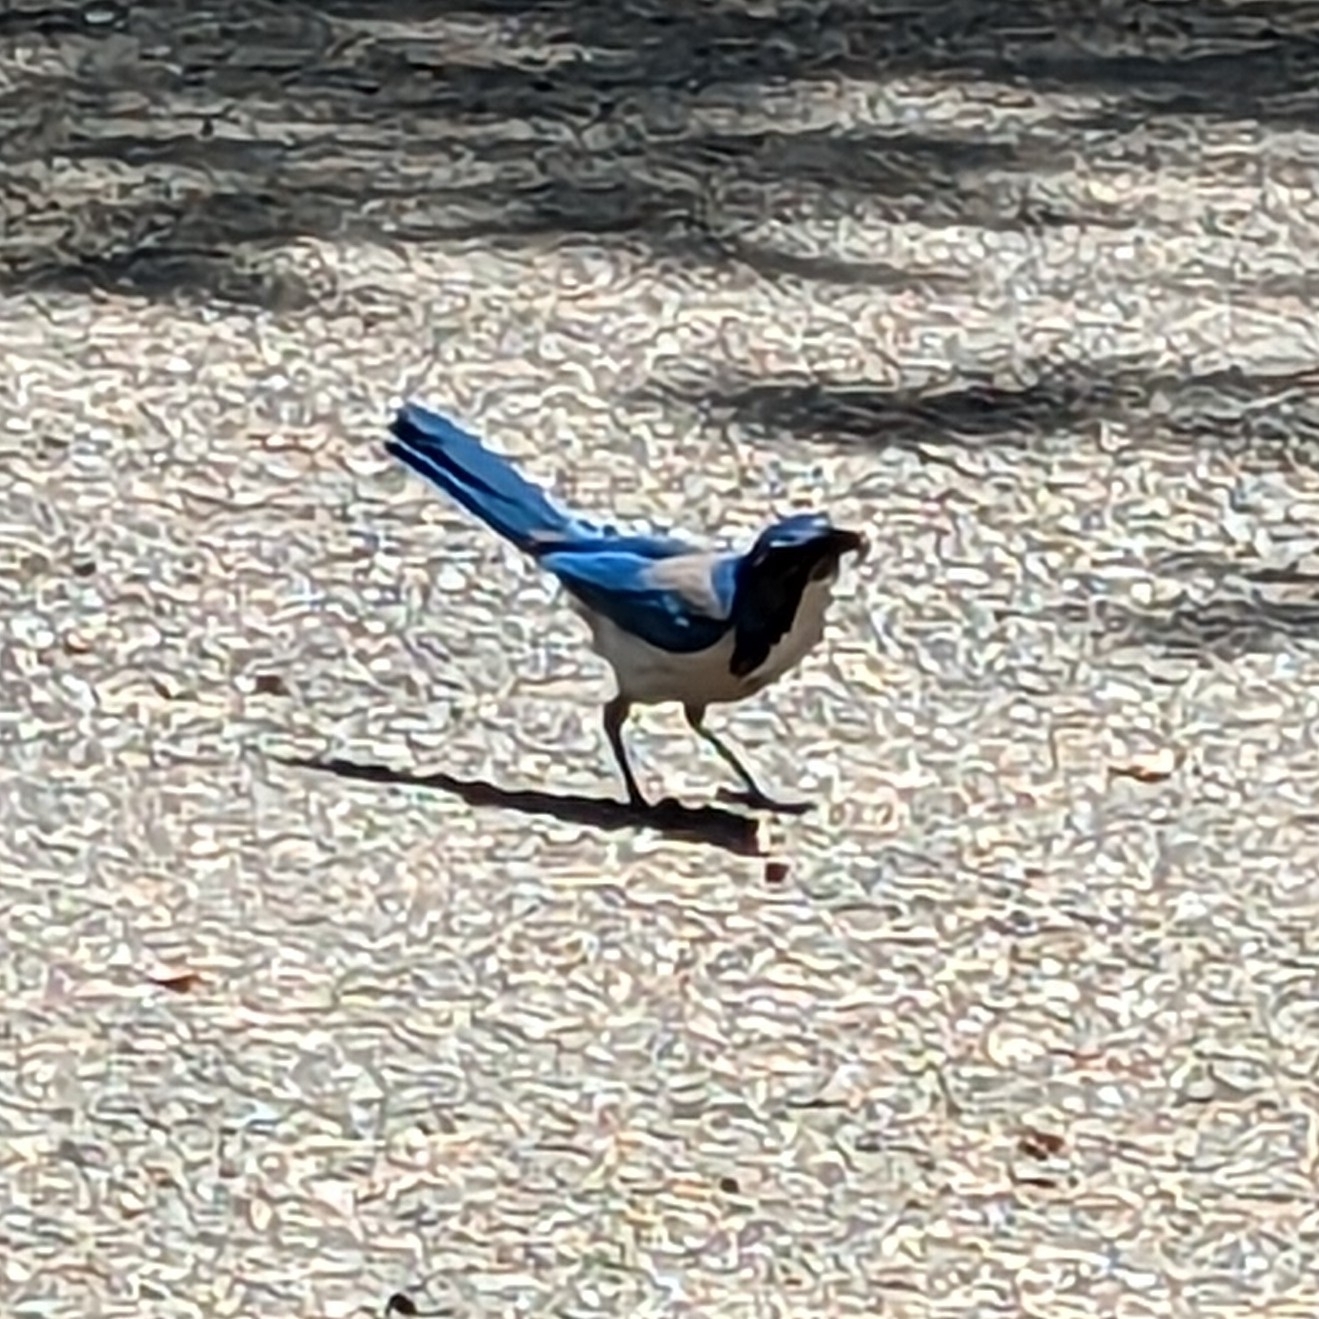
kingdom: Animalia
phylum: Chordata
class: Aves
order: Passeriformes
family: Corvidae
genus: Aphelocoma
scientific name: Aphelocoma californica
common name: California scrub-jay
